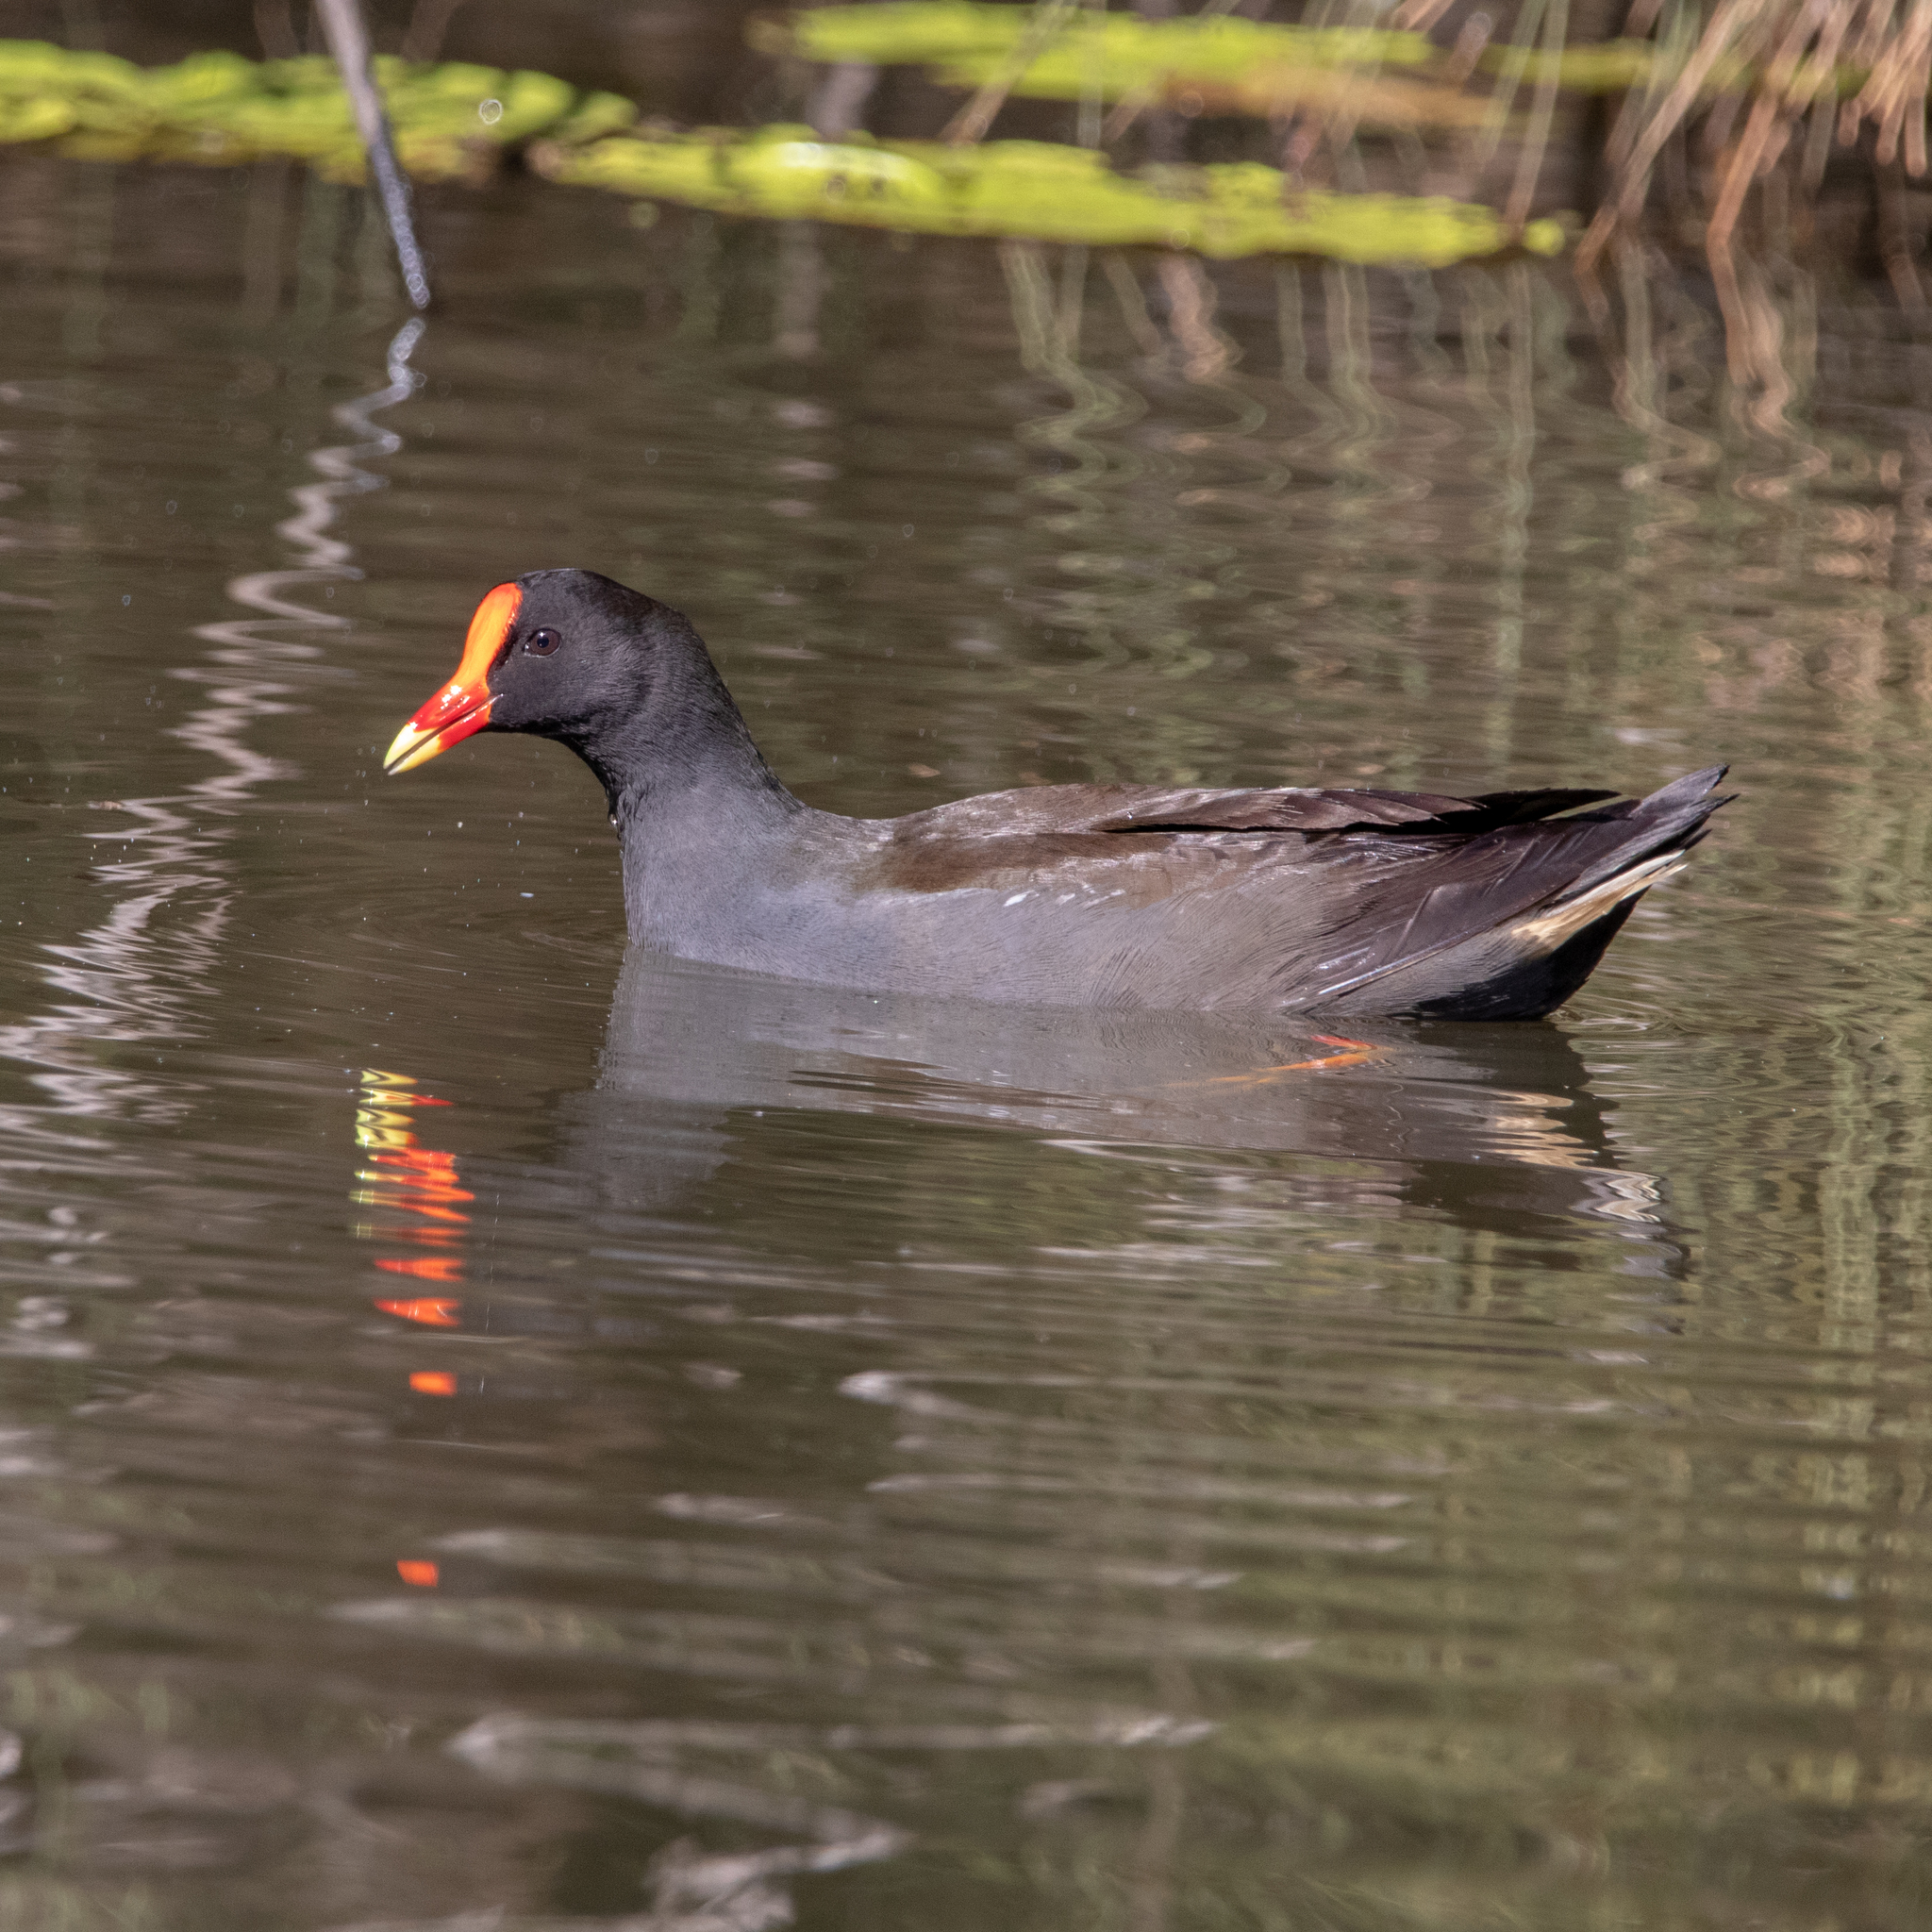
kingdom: Animalia
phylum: Chordata
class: Aves
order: Gruiformes
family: Rallidae
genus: Gallinula
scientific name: Gallinula tenebrosa
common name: Dusky moorhen
